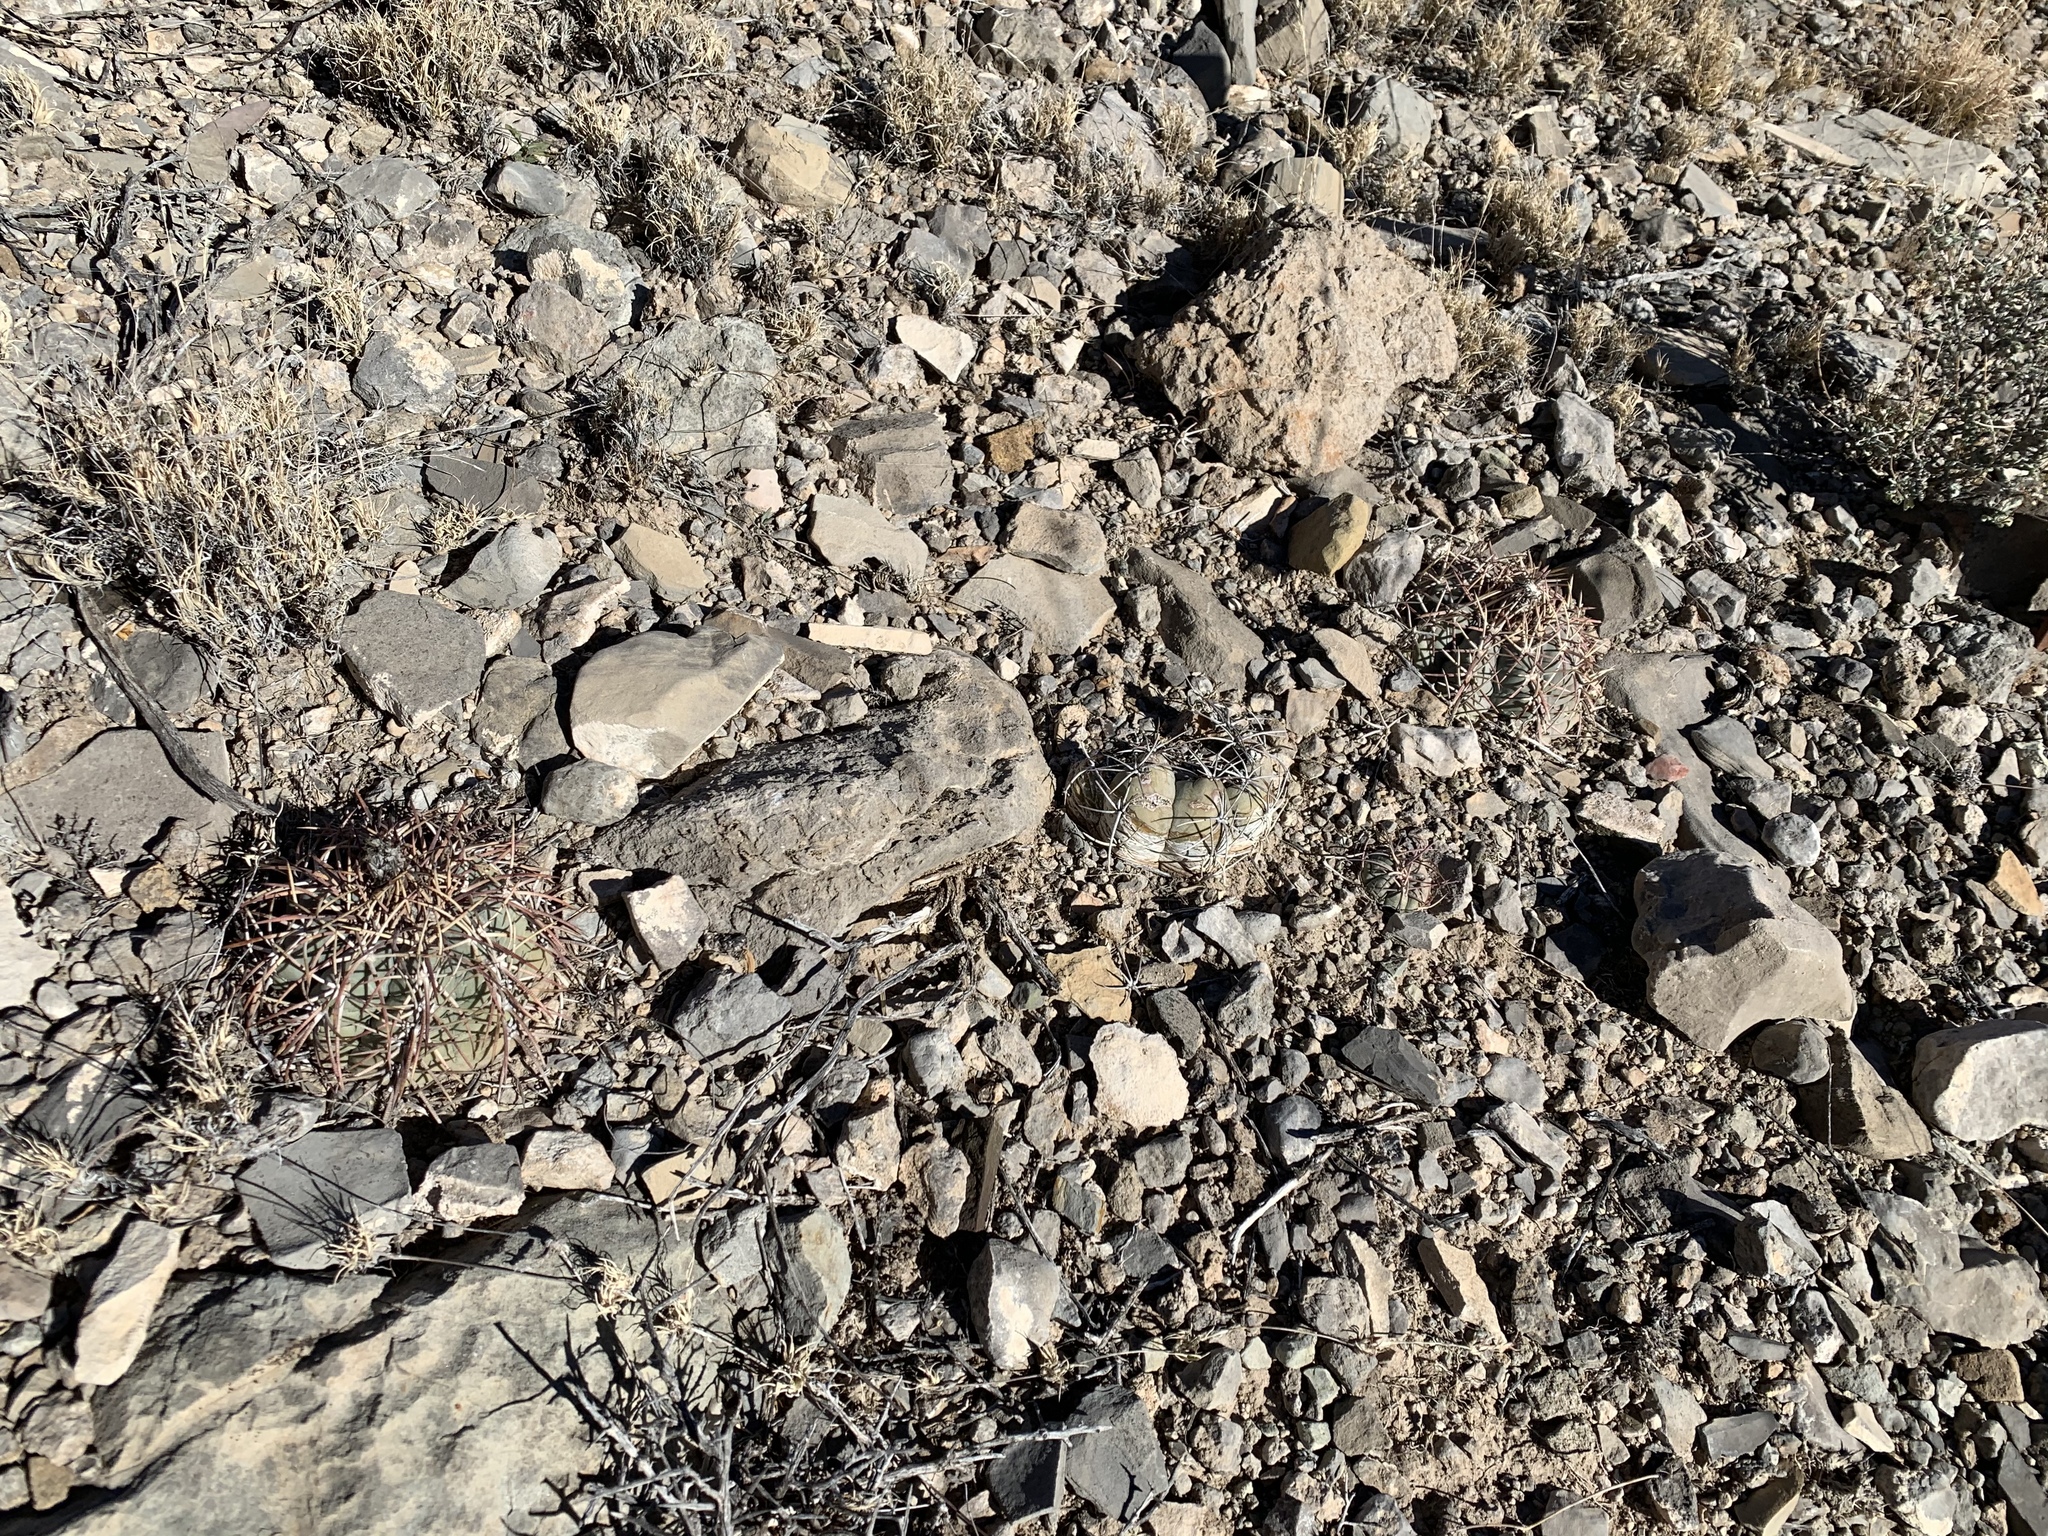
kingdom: Plantae
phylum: Tracheophyta
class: Magnoliopsida
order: Caryophyllales
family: Cactaceae
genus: Echinocactus
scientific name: Echinocactus horizonthalonius
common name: Devilshead
